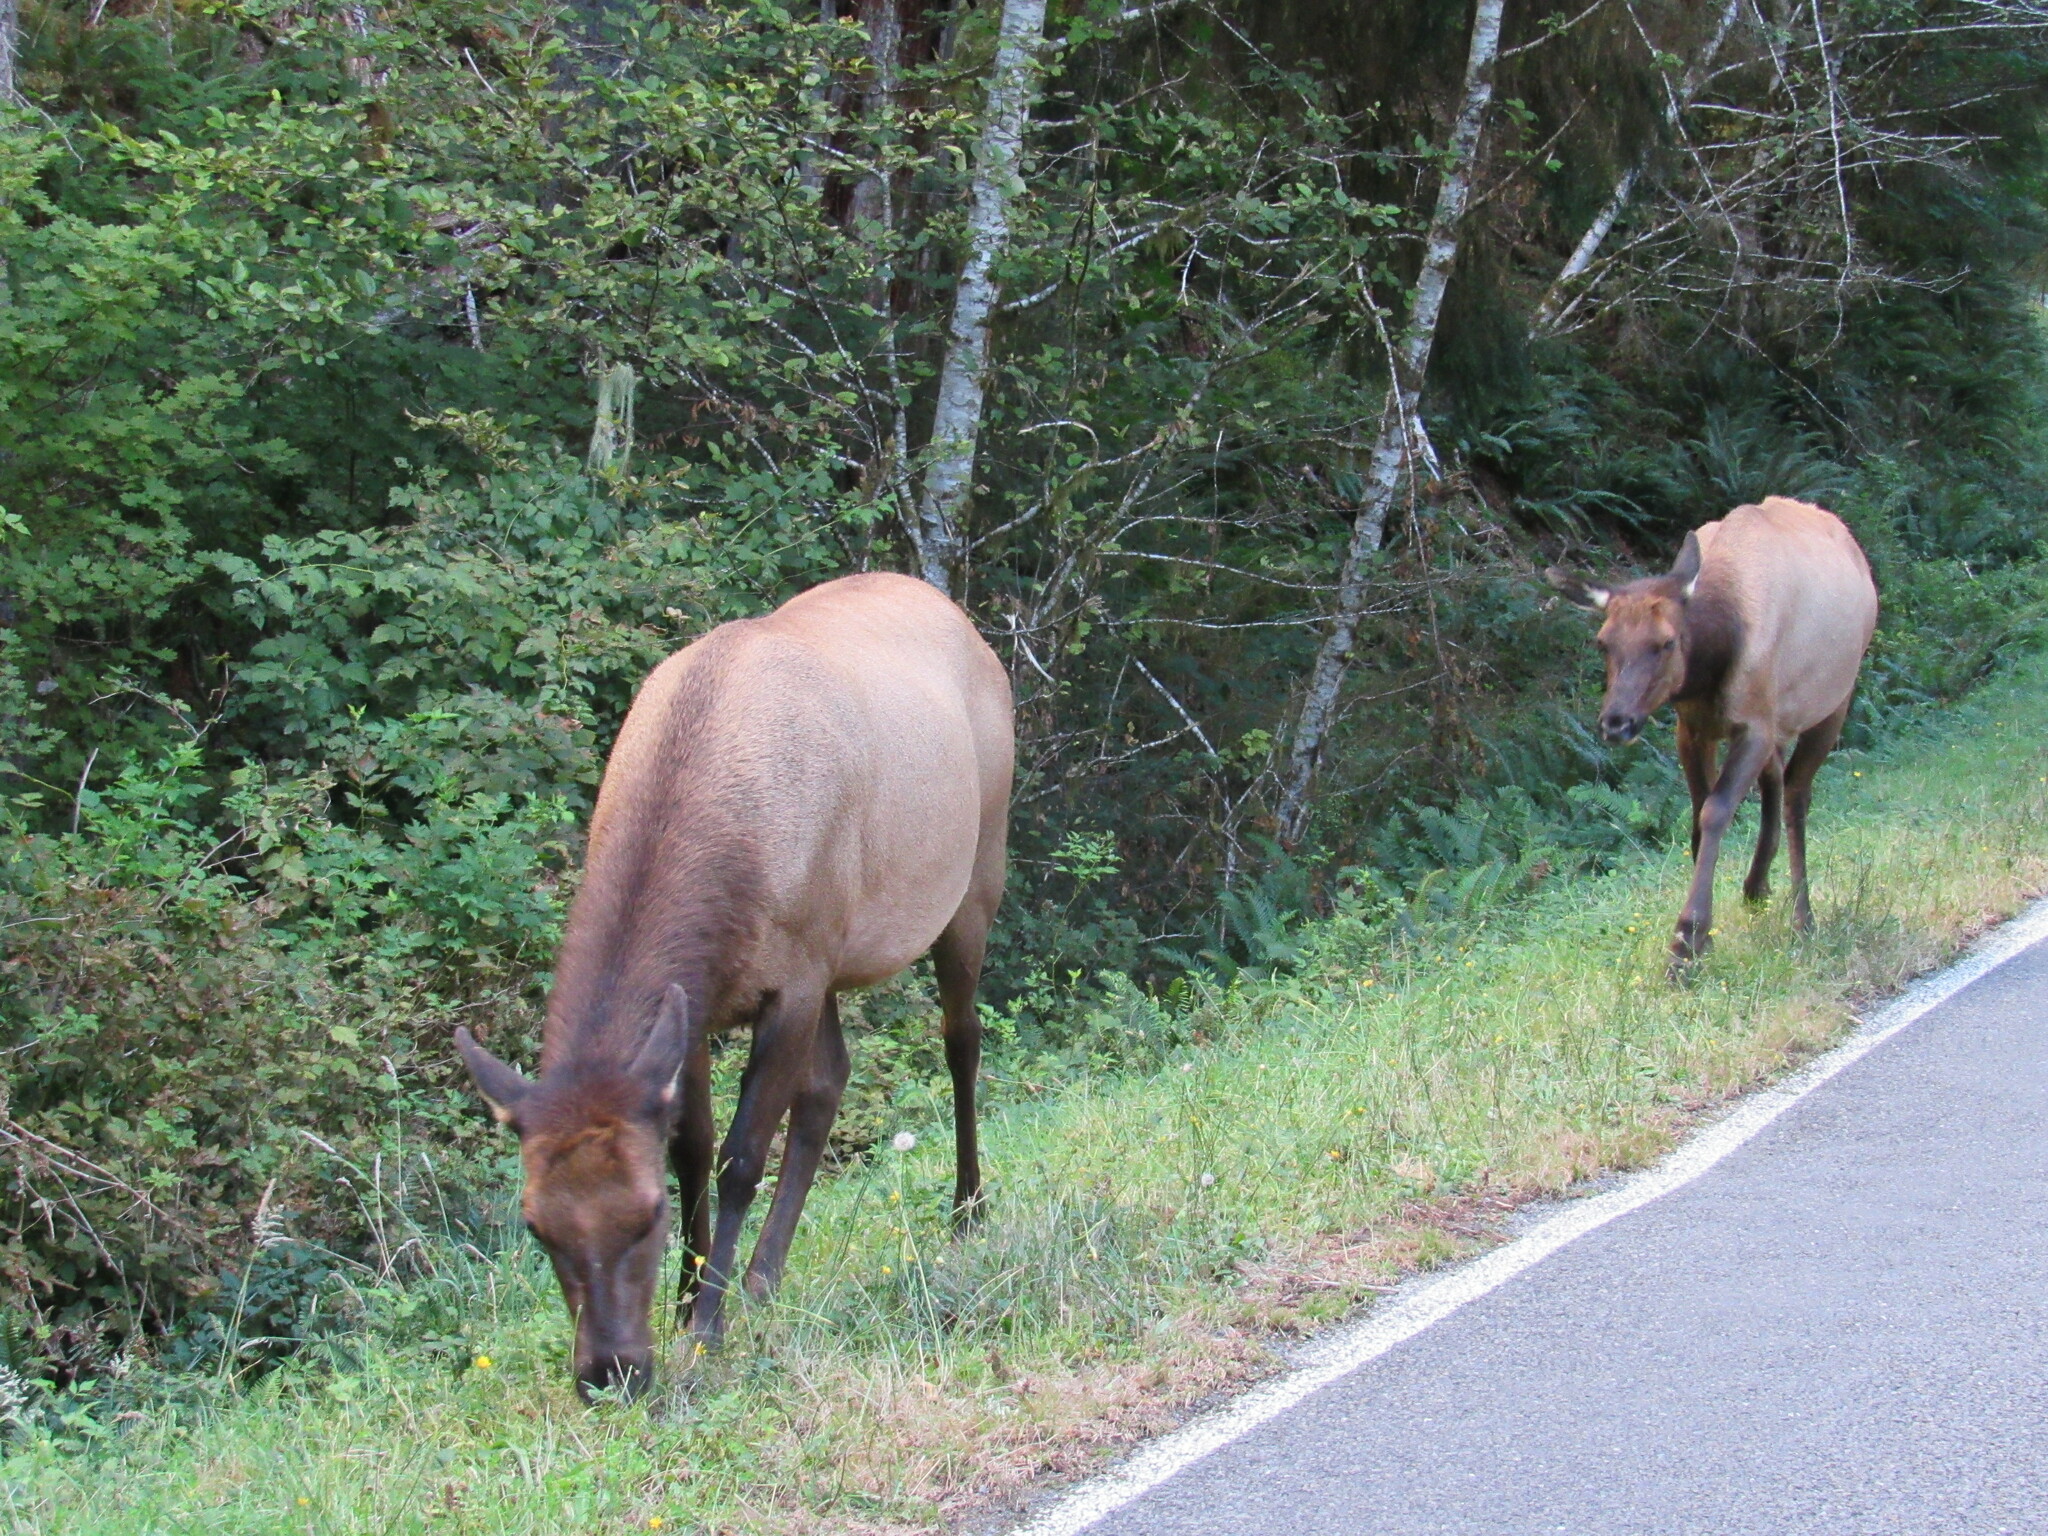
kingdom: Animalia
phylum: Chordata
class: Mammalia
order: Artiodactyla
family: Cervidae
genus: Cervus
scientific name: Cervus elaphus
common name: Red deer
